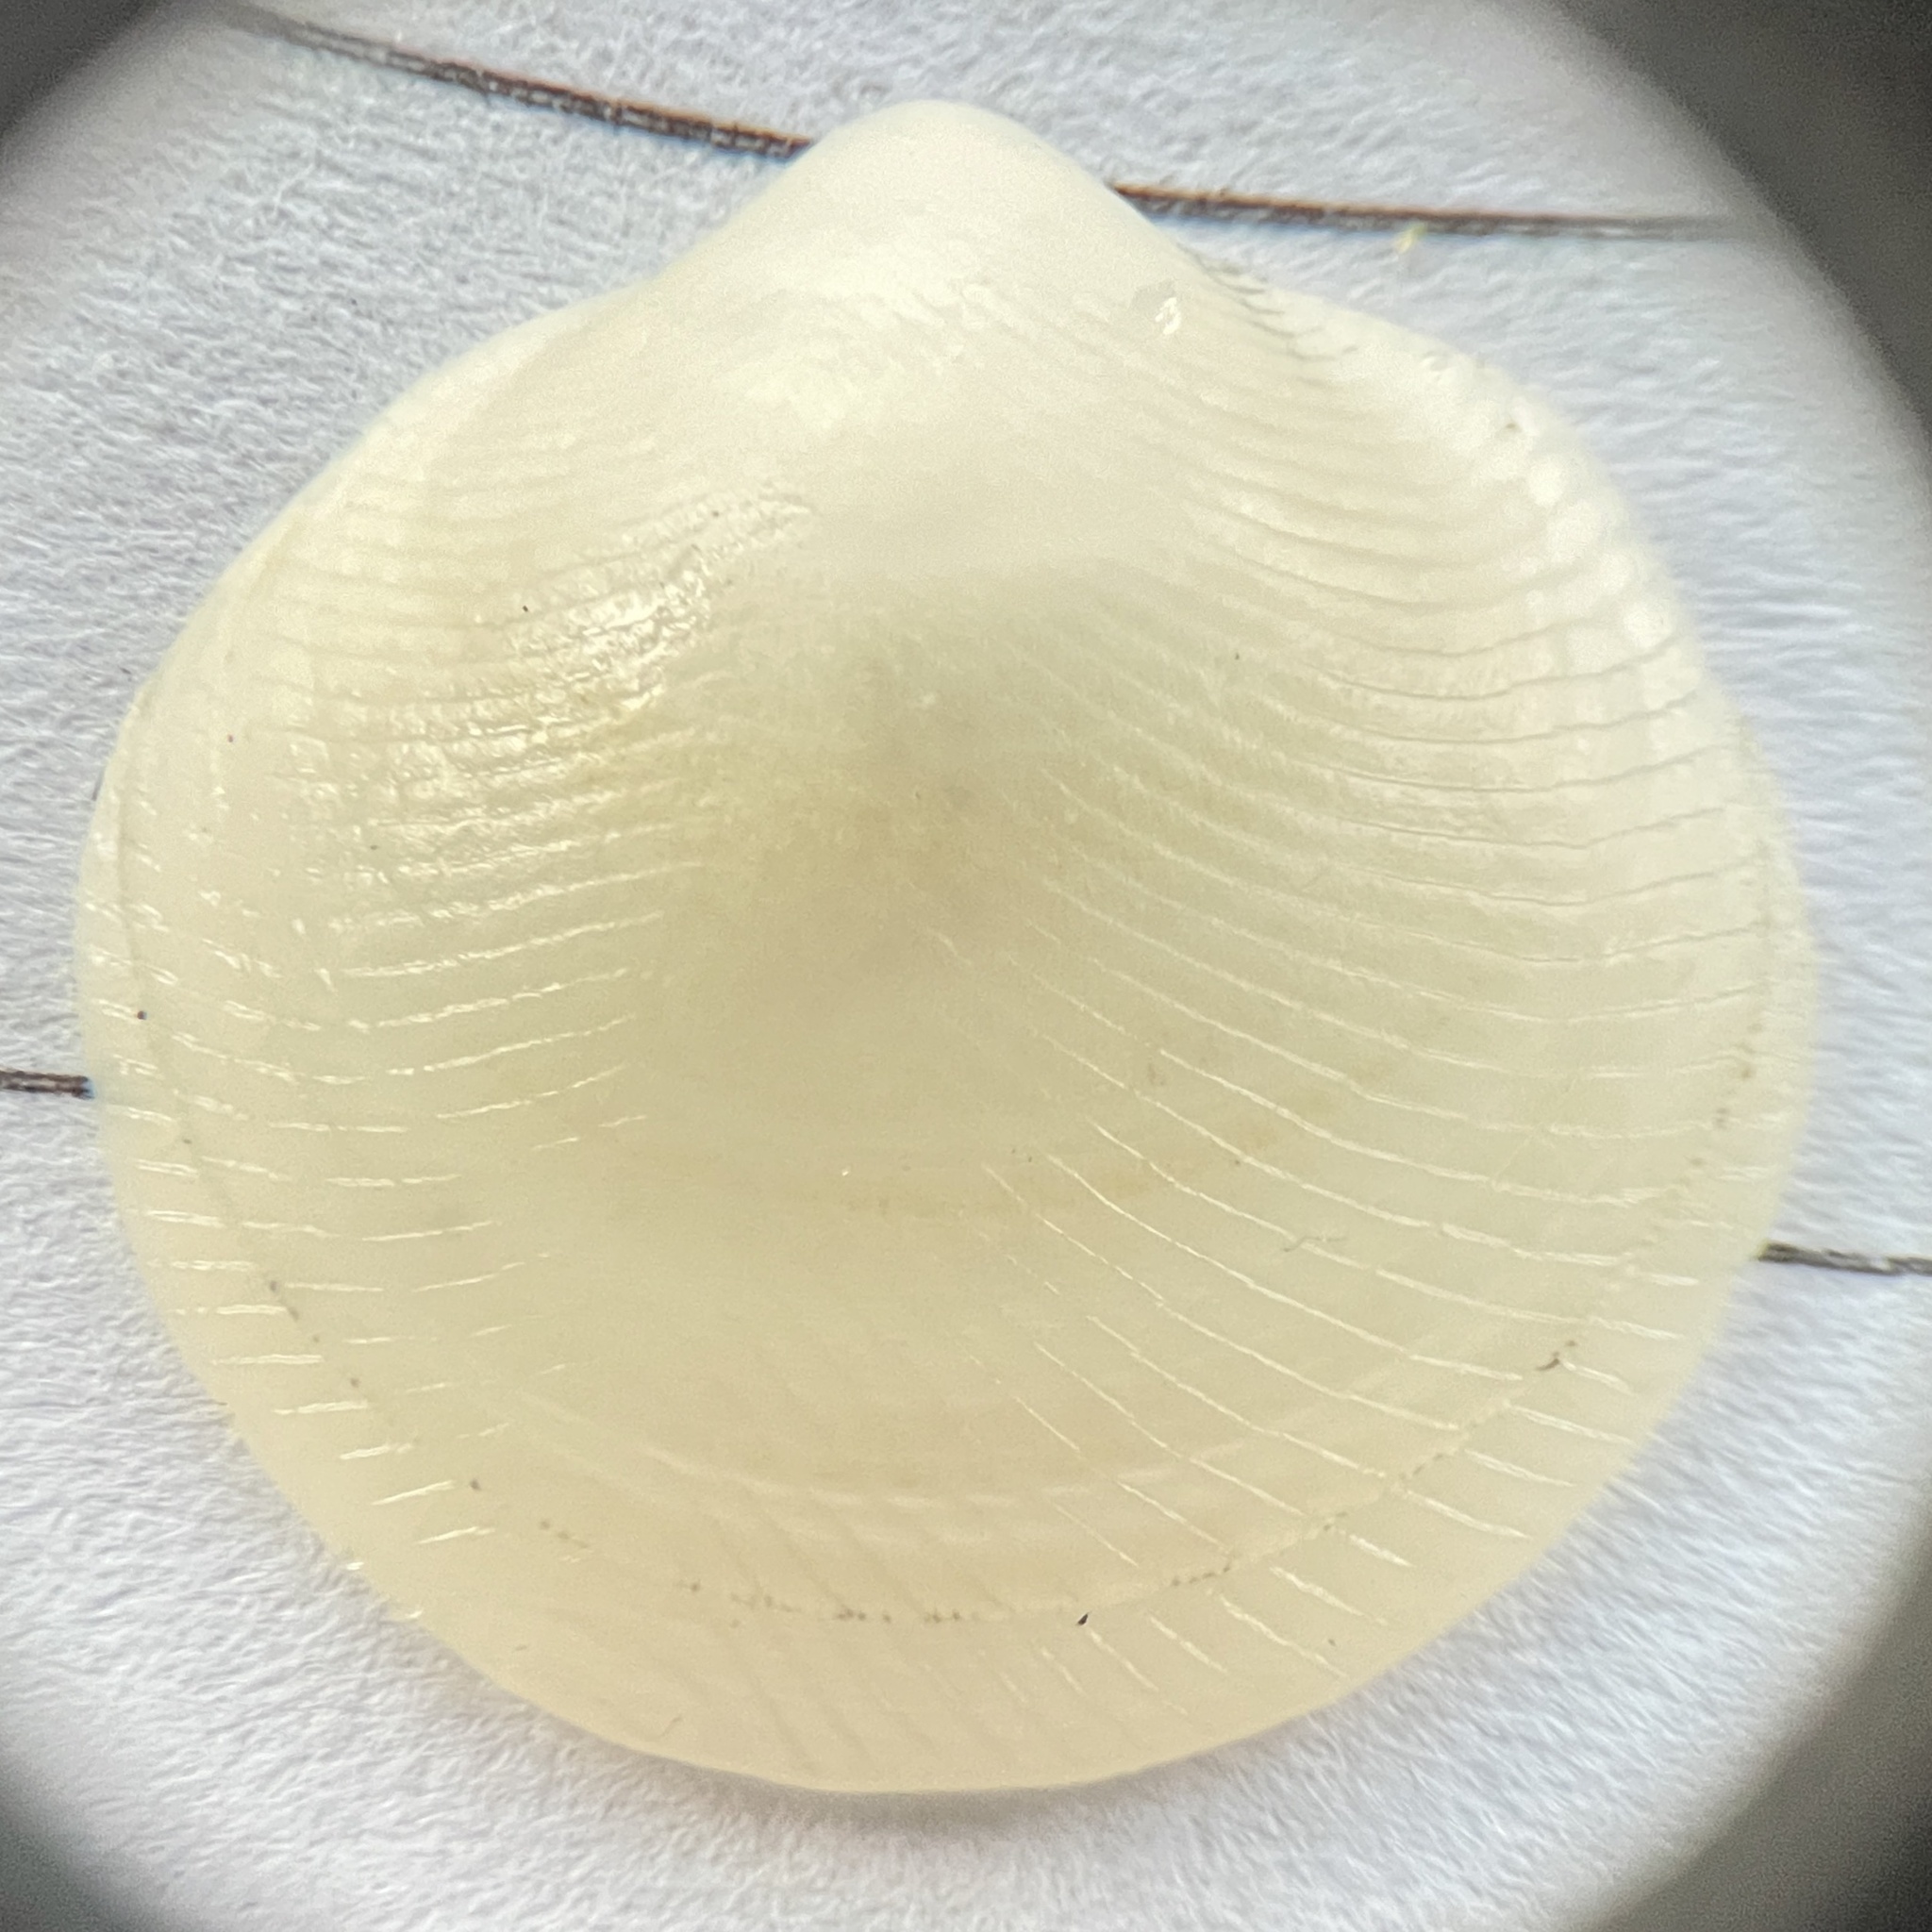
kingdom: Animalia
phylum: Mollusca
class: Bivalvia
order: Lucinida
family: Lucinidae
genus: Divalinga
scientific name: Divalinga quadrisulcata
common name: Cross-hatched lucine
